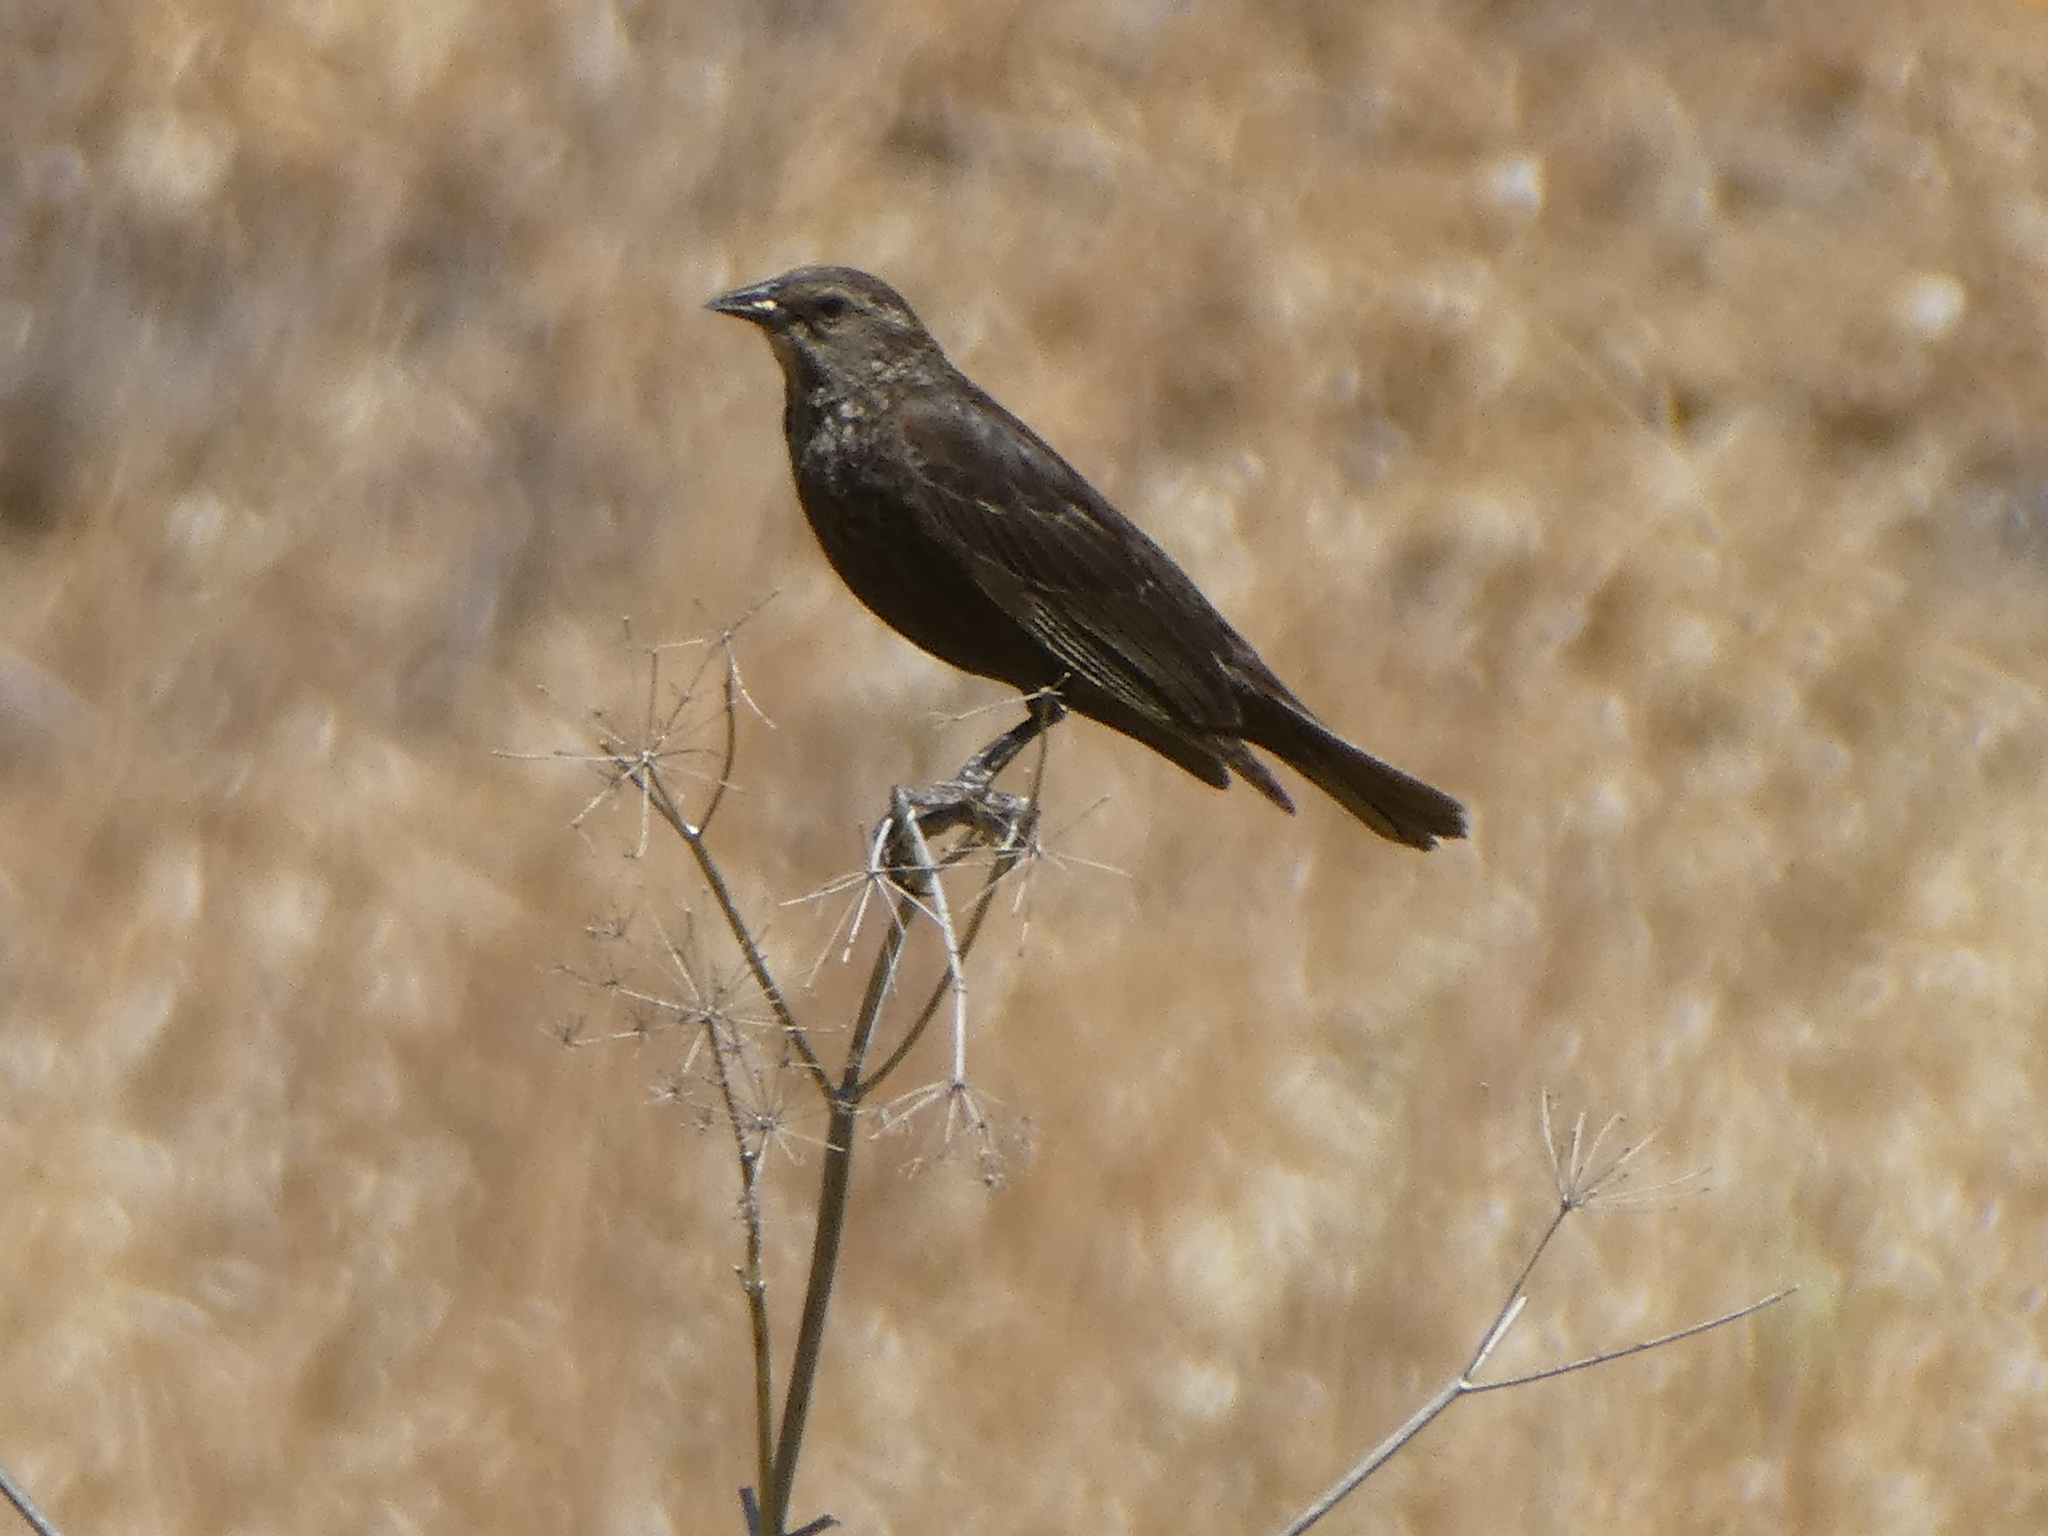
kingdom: Animalia
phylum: Chordata
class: Aves
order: Passeriformes
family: Icteridae
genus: Agelaius
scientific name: Agelaius phoeniceus
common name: Red-winged blackbird
